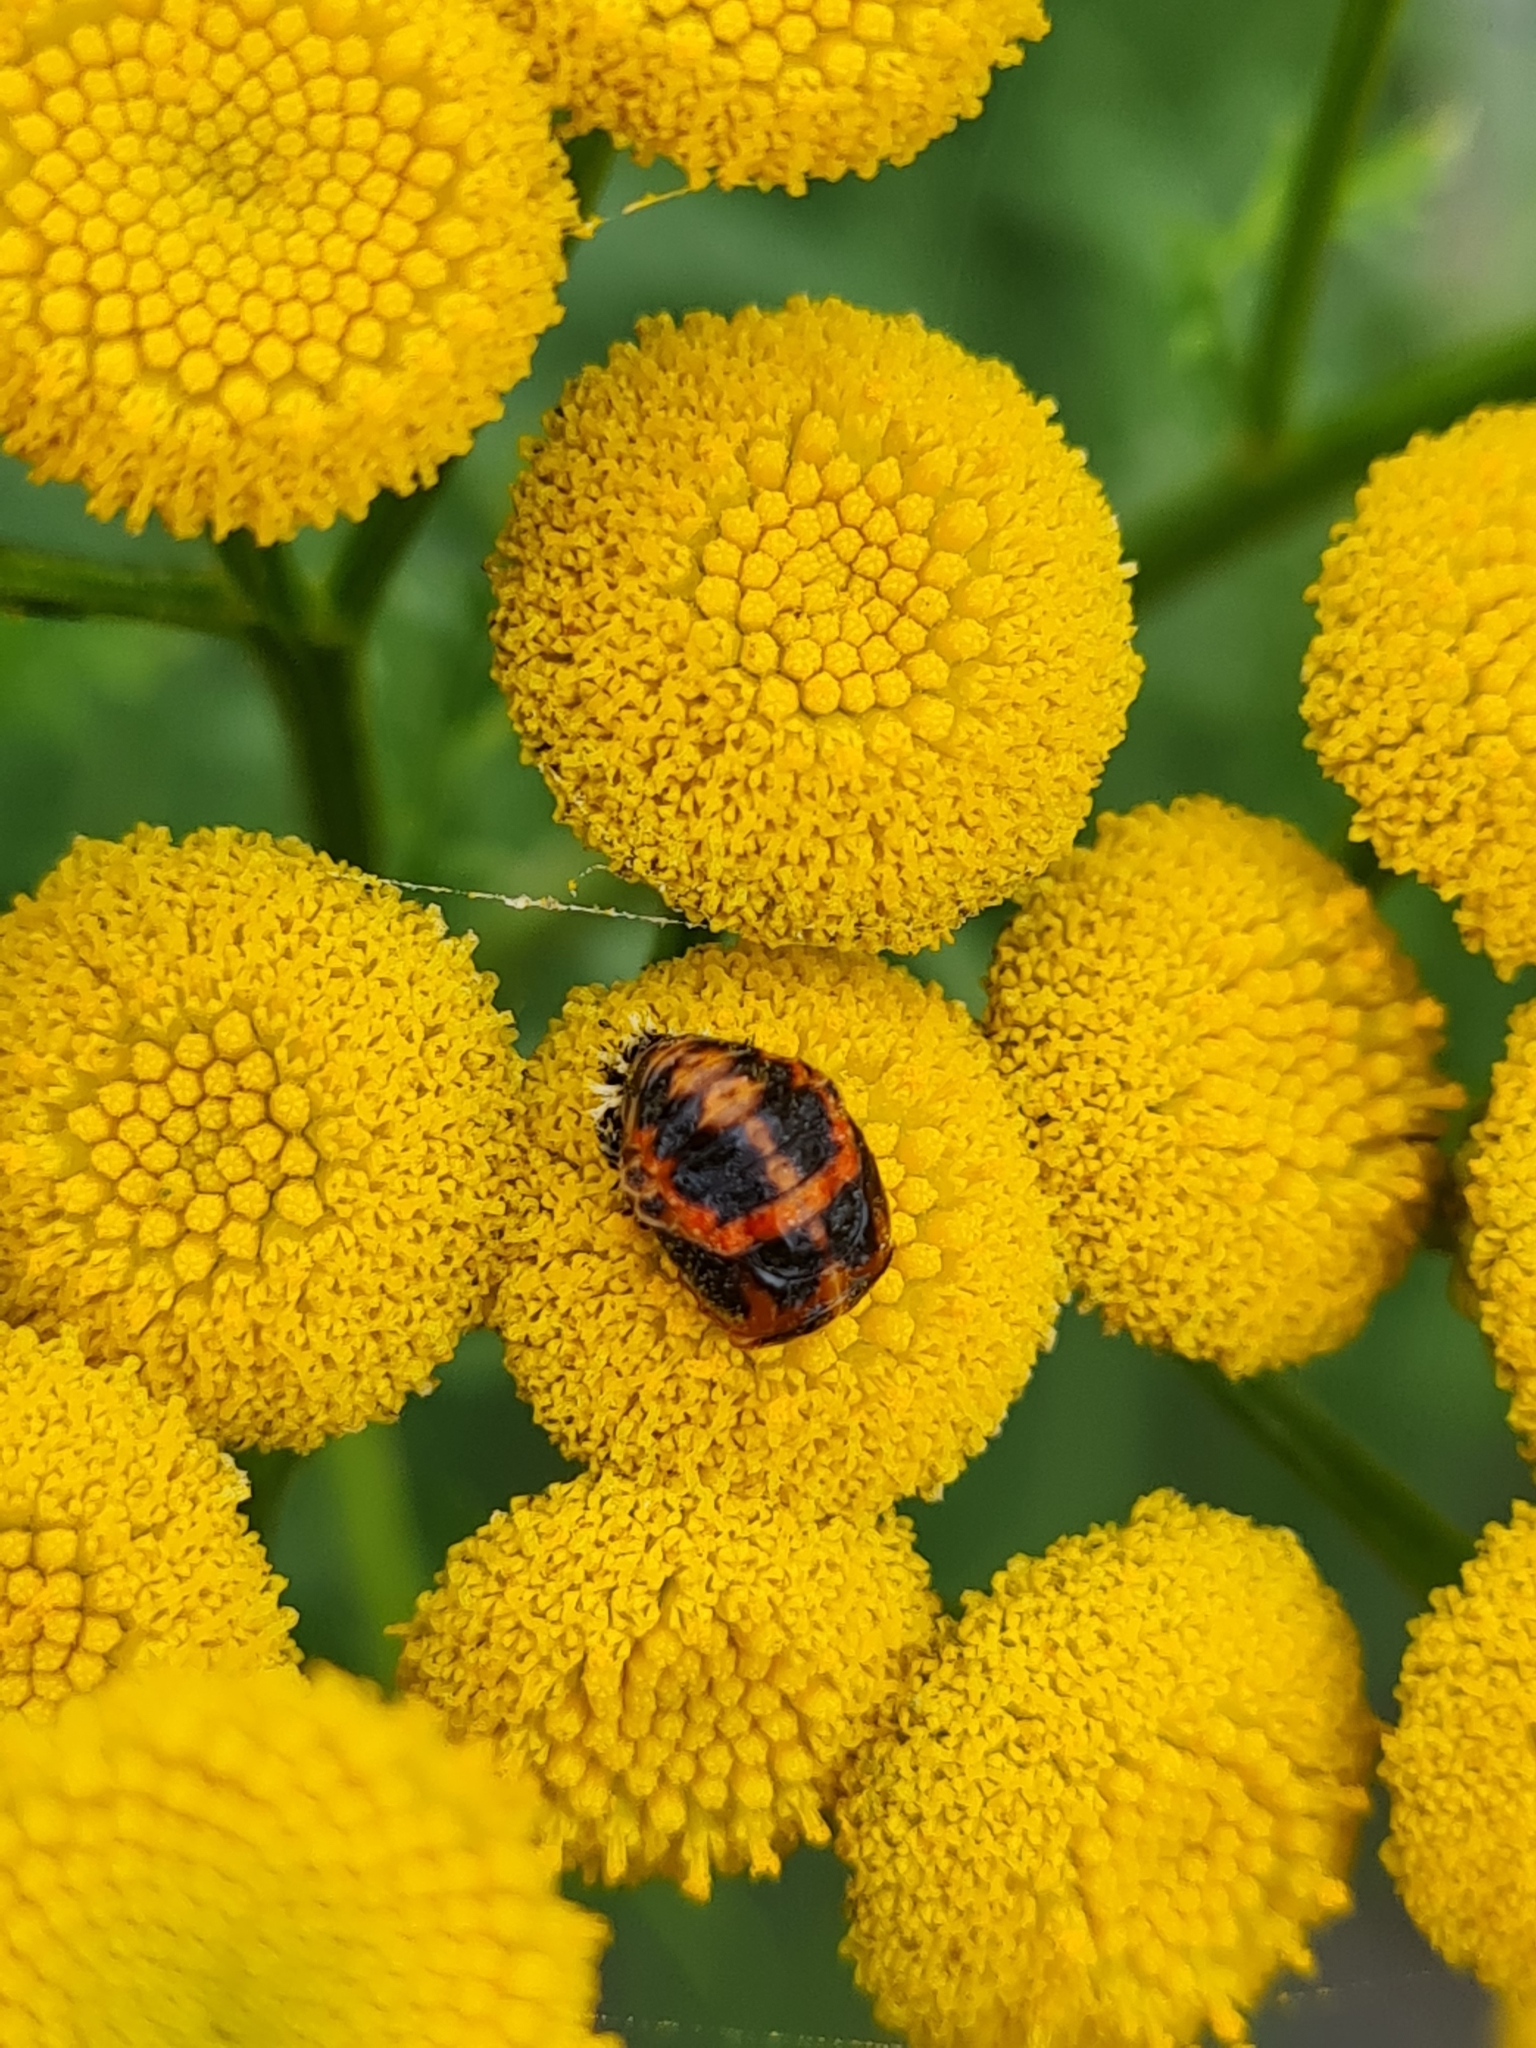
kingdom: Animalia
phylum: Arthropoda
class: Insecta
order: Coleoptera
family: Coccinellidae
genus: Harmonia
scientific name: Harmonia axyridis
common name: Harlequin ladybird
